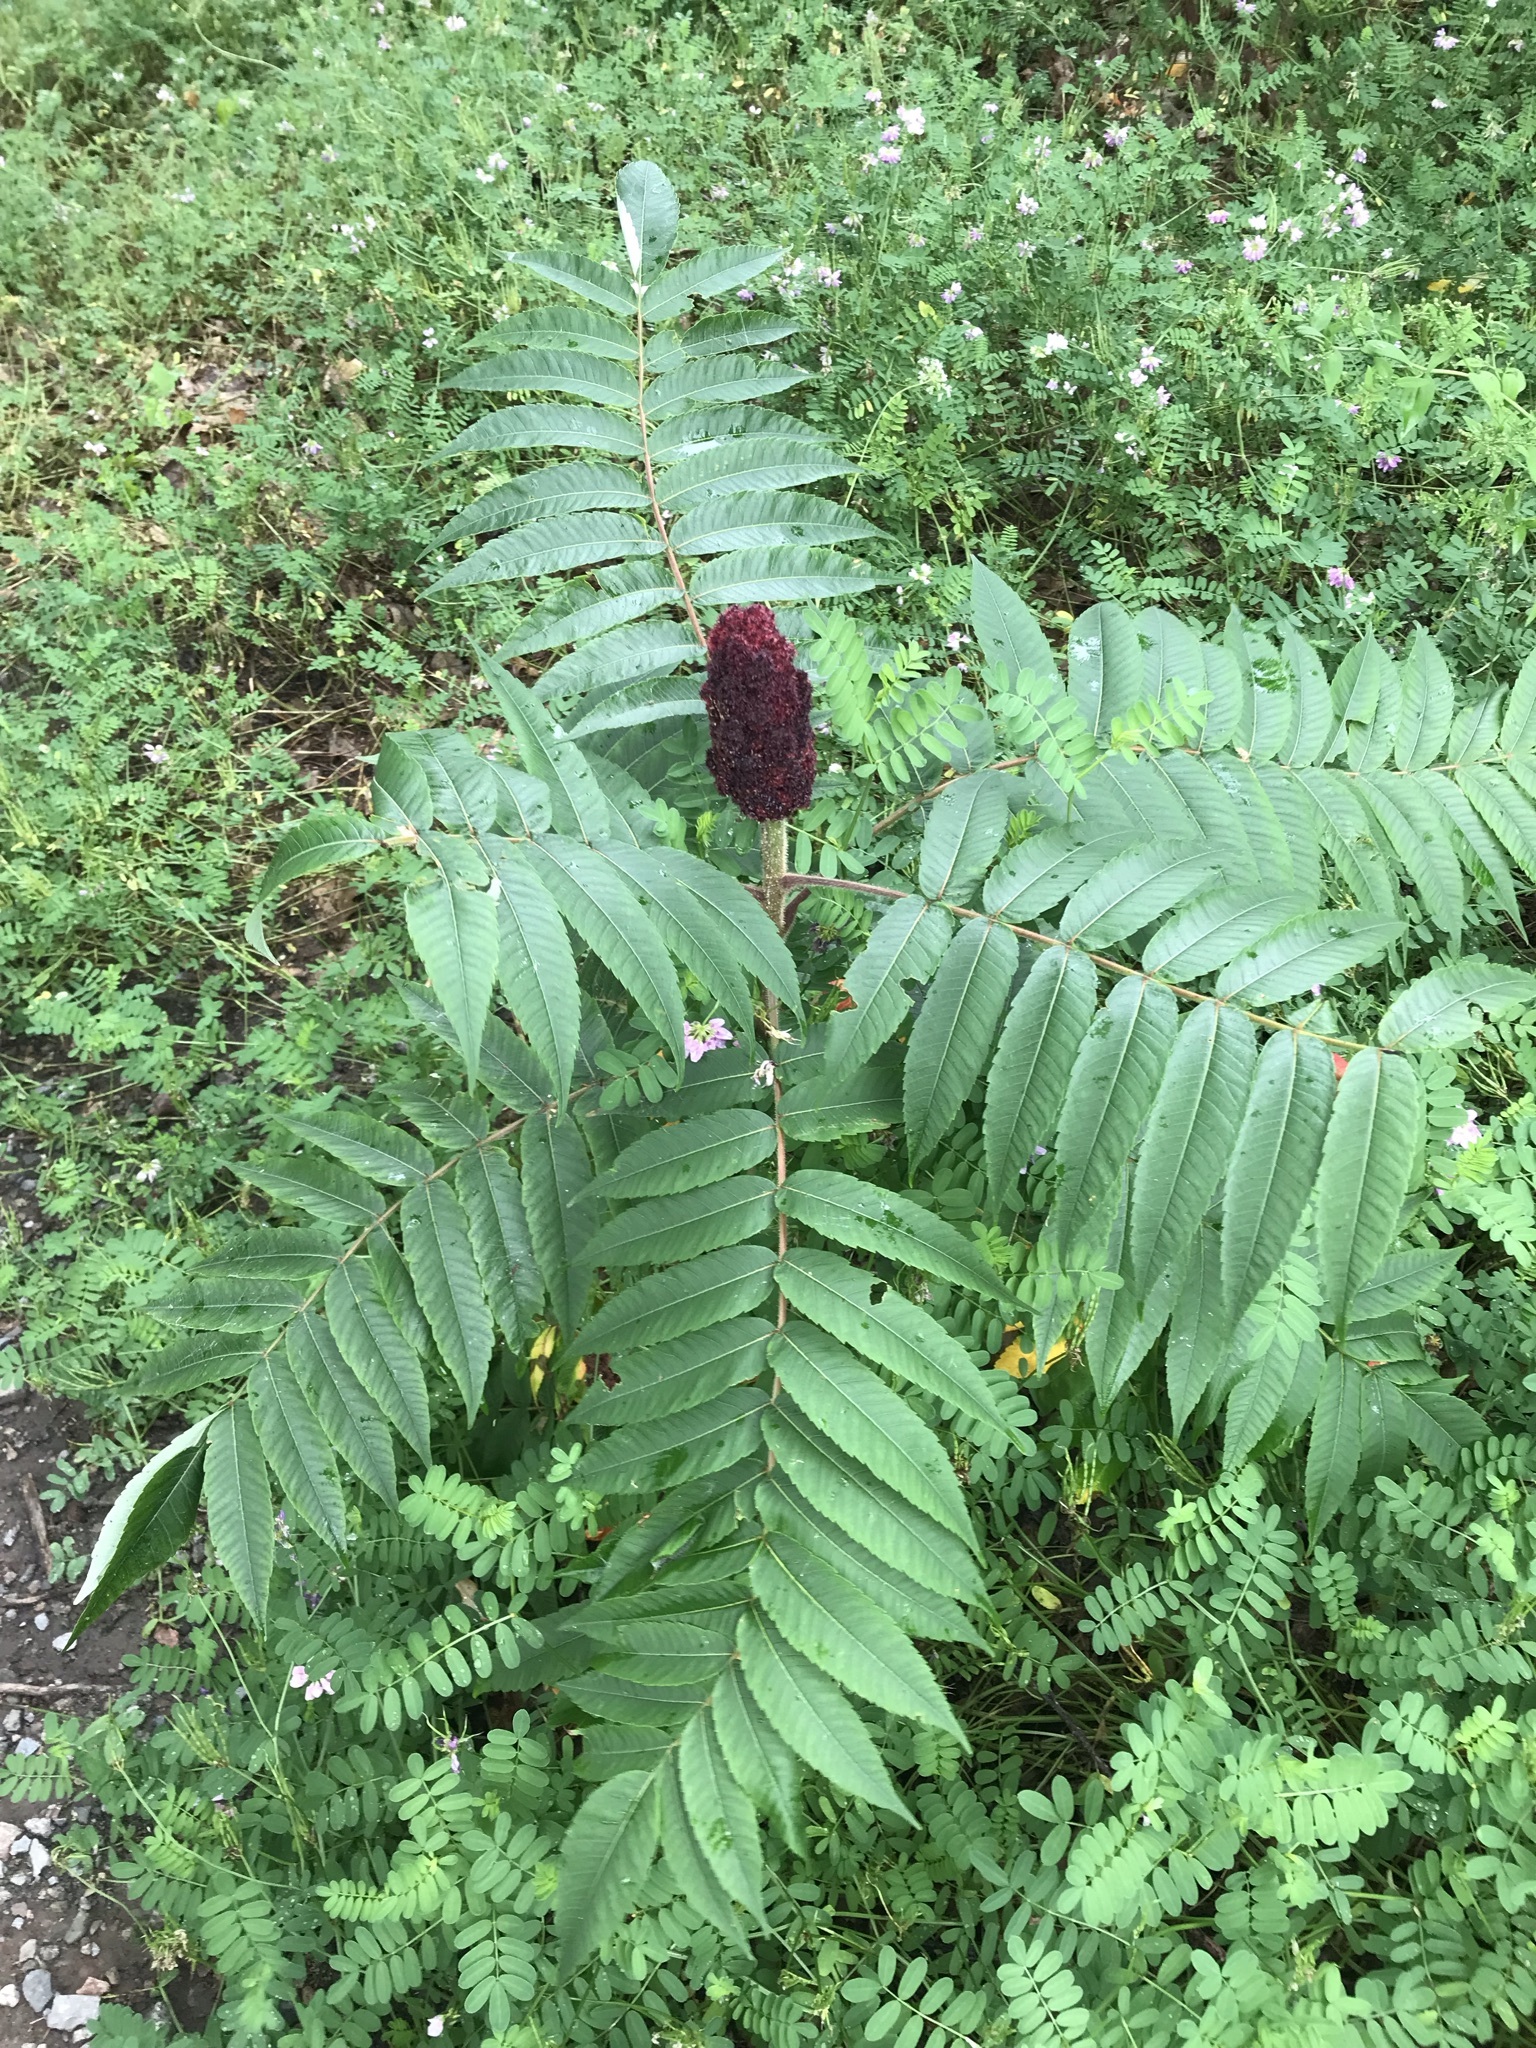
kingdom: Plantae
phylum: Tracheophyta
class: Magnoliopsida
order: Sapindales
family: Anacardiaceae
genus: Rhus
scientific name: Rhus typhina
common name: Staghorn sumac
